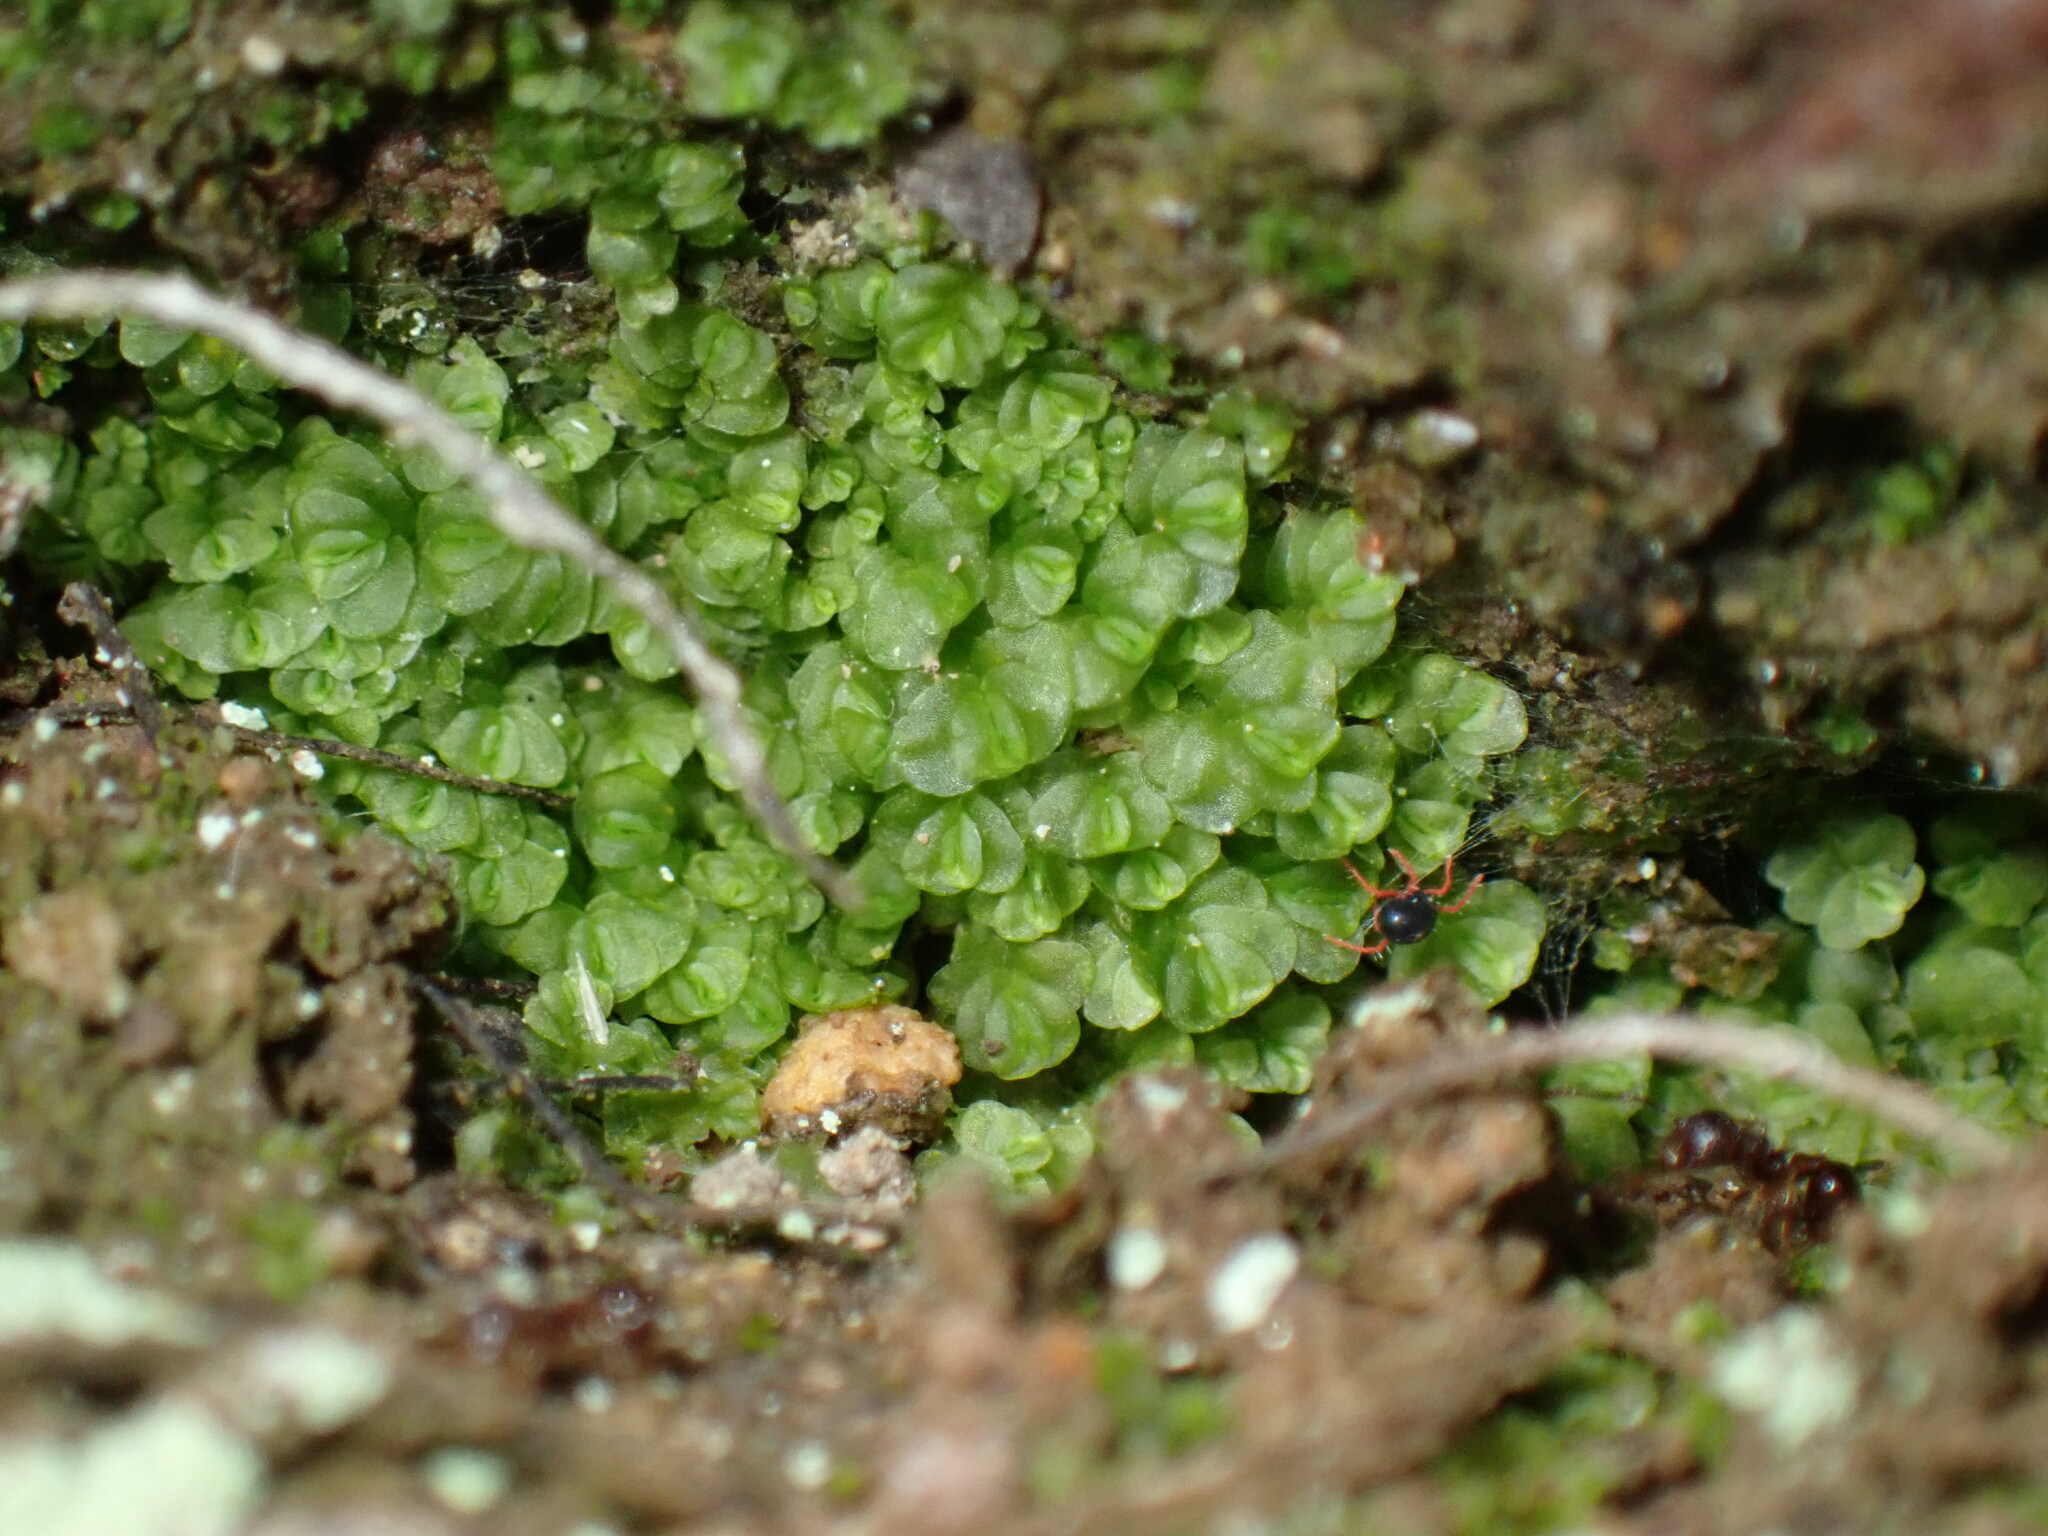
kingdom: Animalia
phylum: Arthropoda
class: Arachnida
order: Trombidiformes
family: Penthaleidae
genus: Penthaleus
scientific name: Penthaleus major
